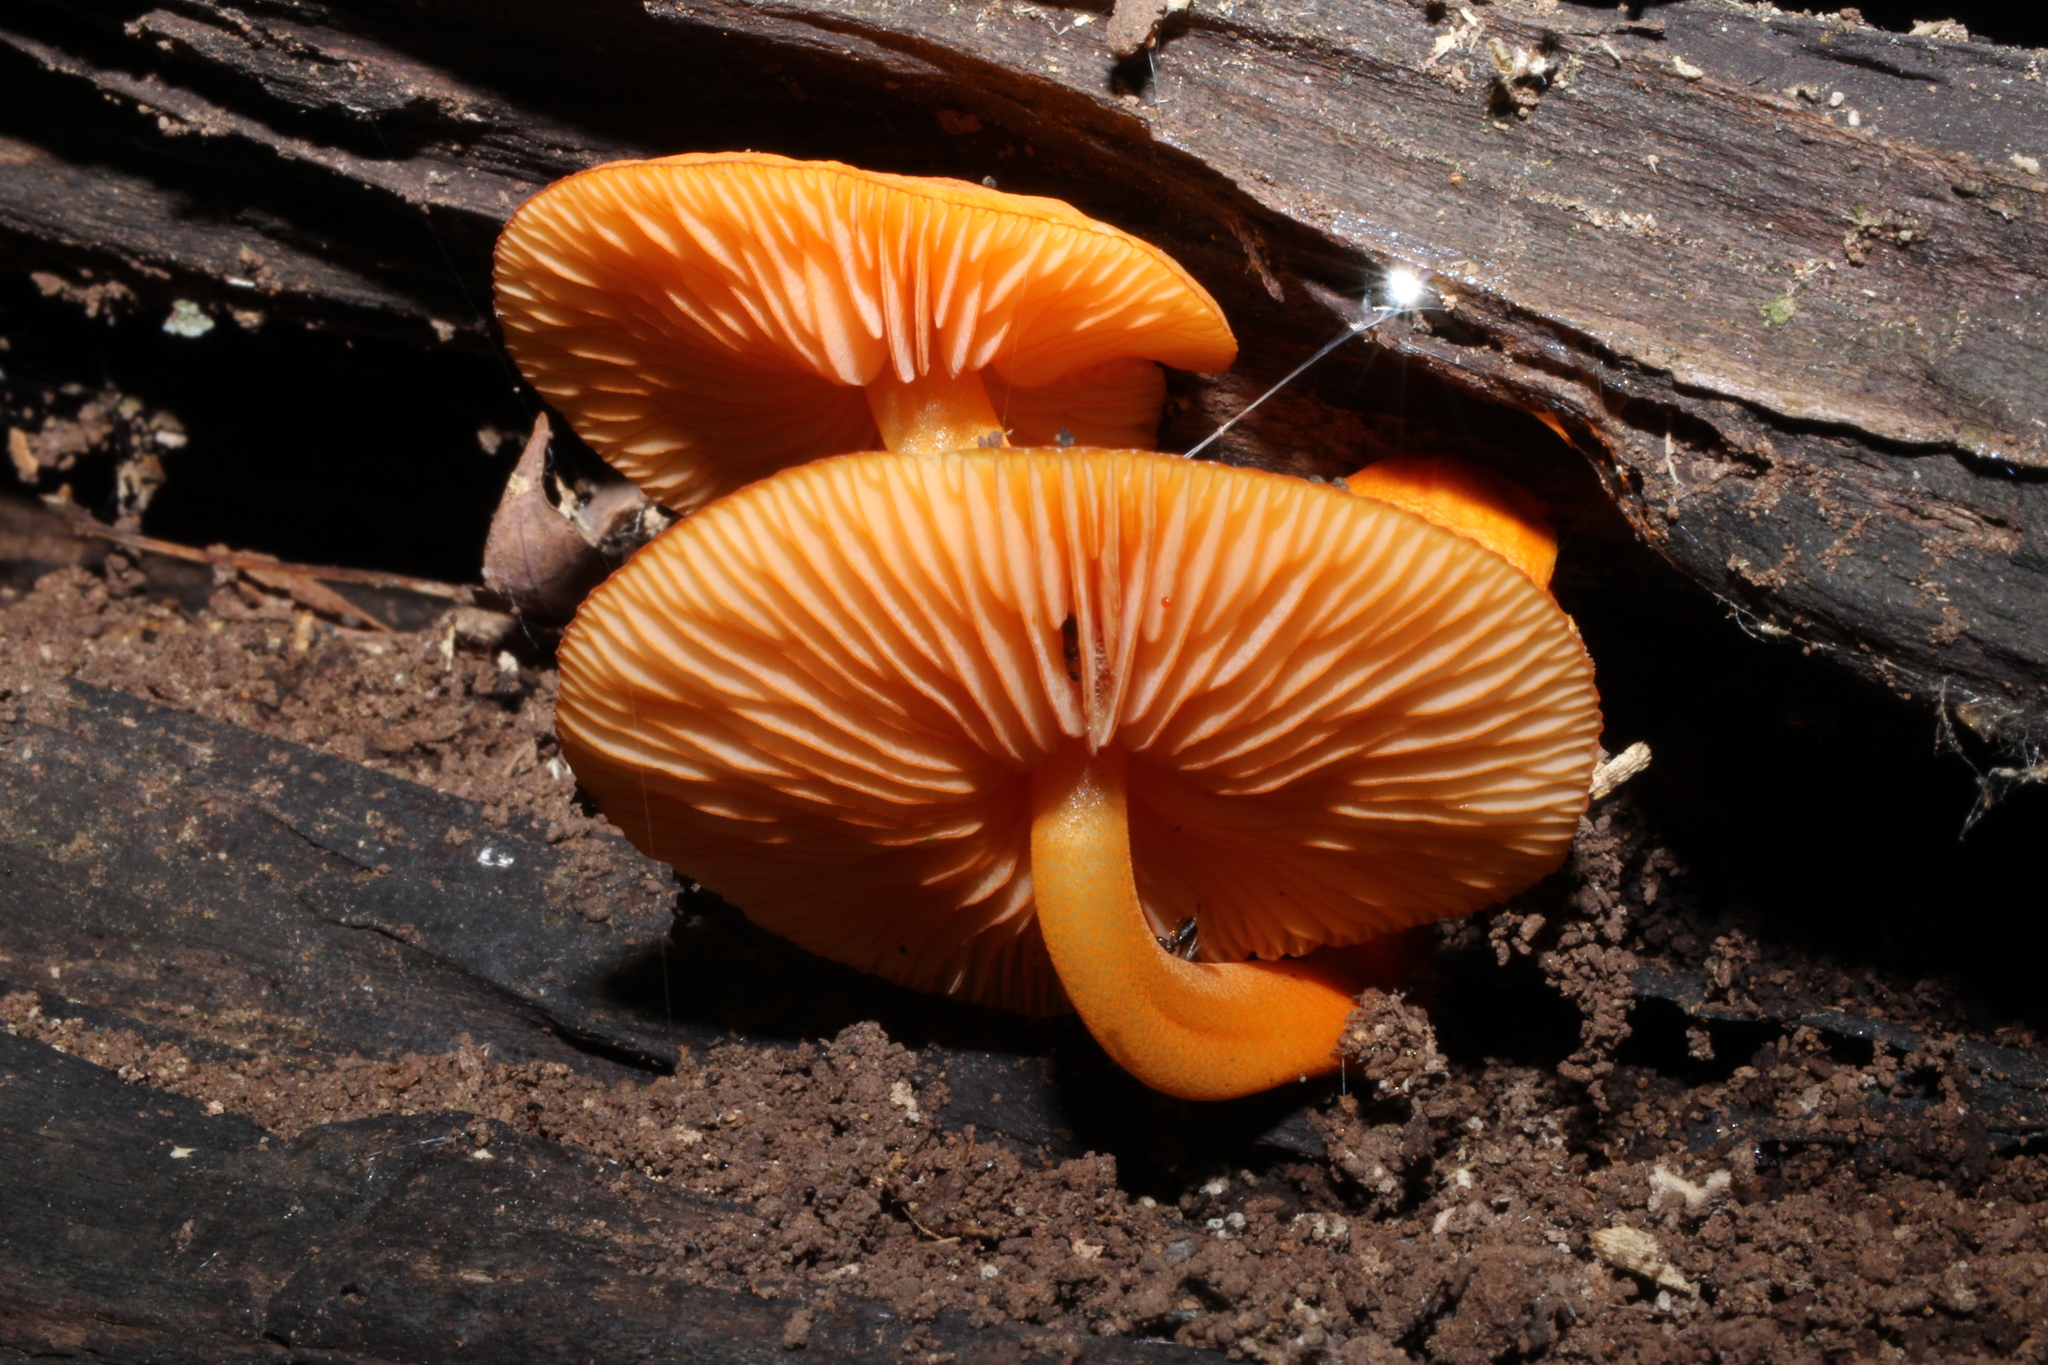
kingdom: Fungi
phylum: Basidiomycota
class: Agaricomycetes
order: Agaricales
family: Mycenaceae
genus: Mycena
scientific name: Mycena leaiana
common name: Orange mycena
